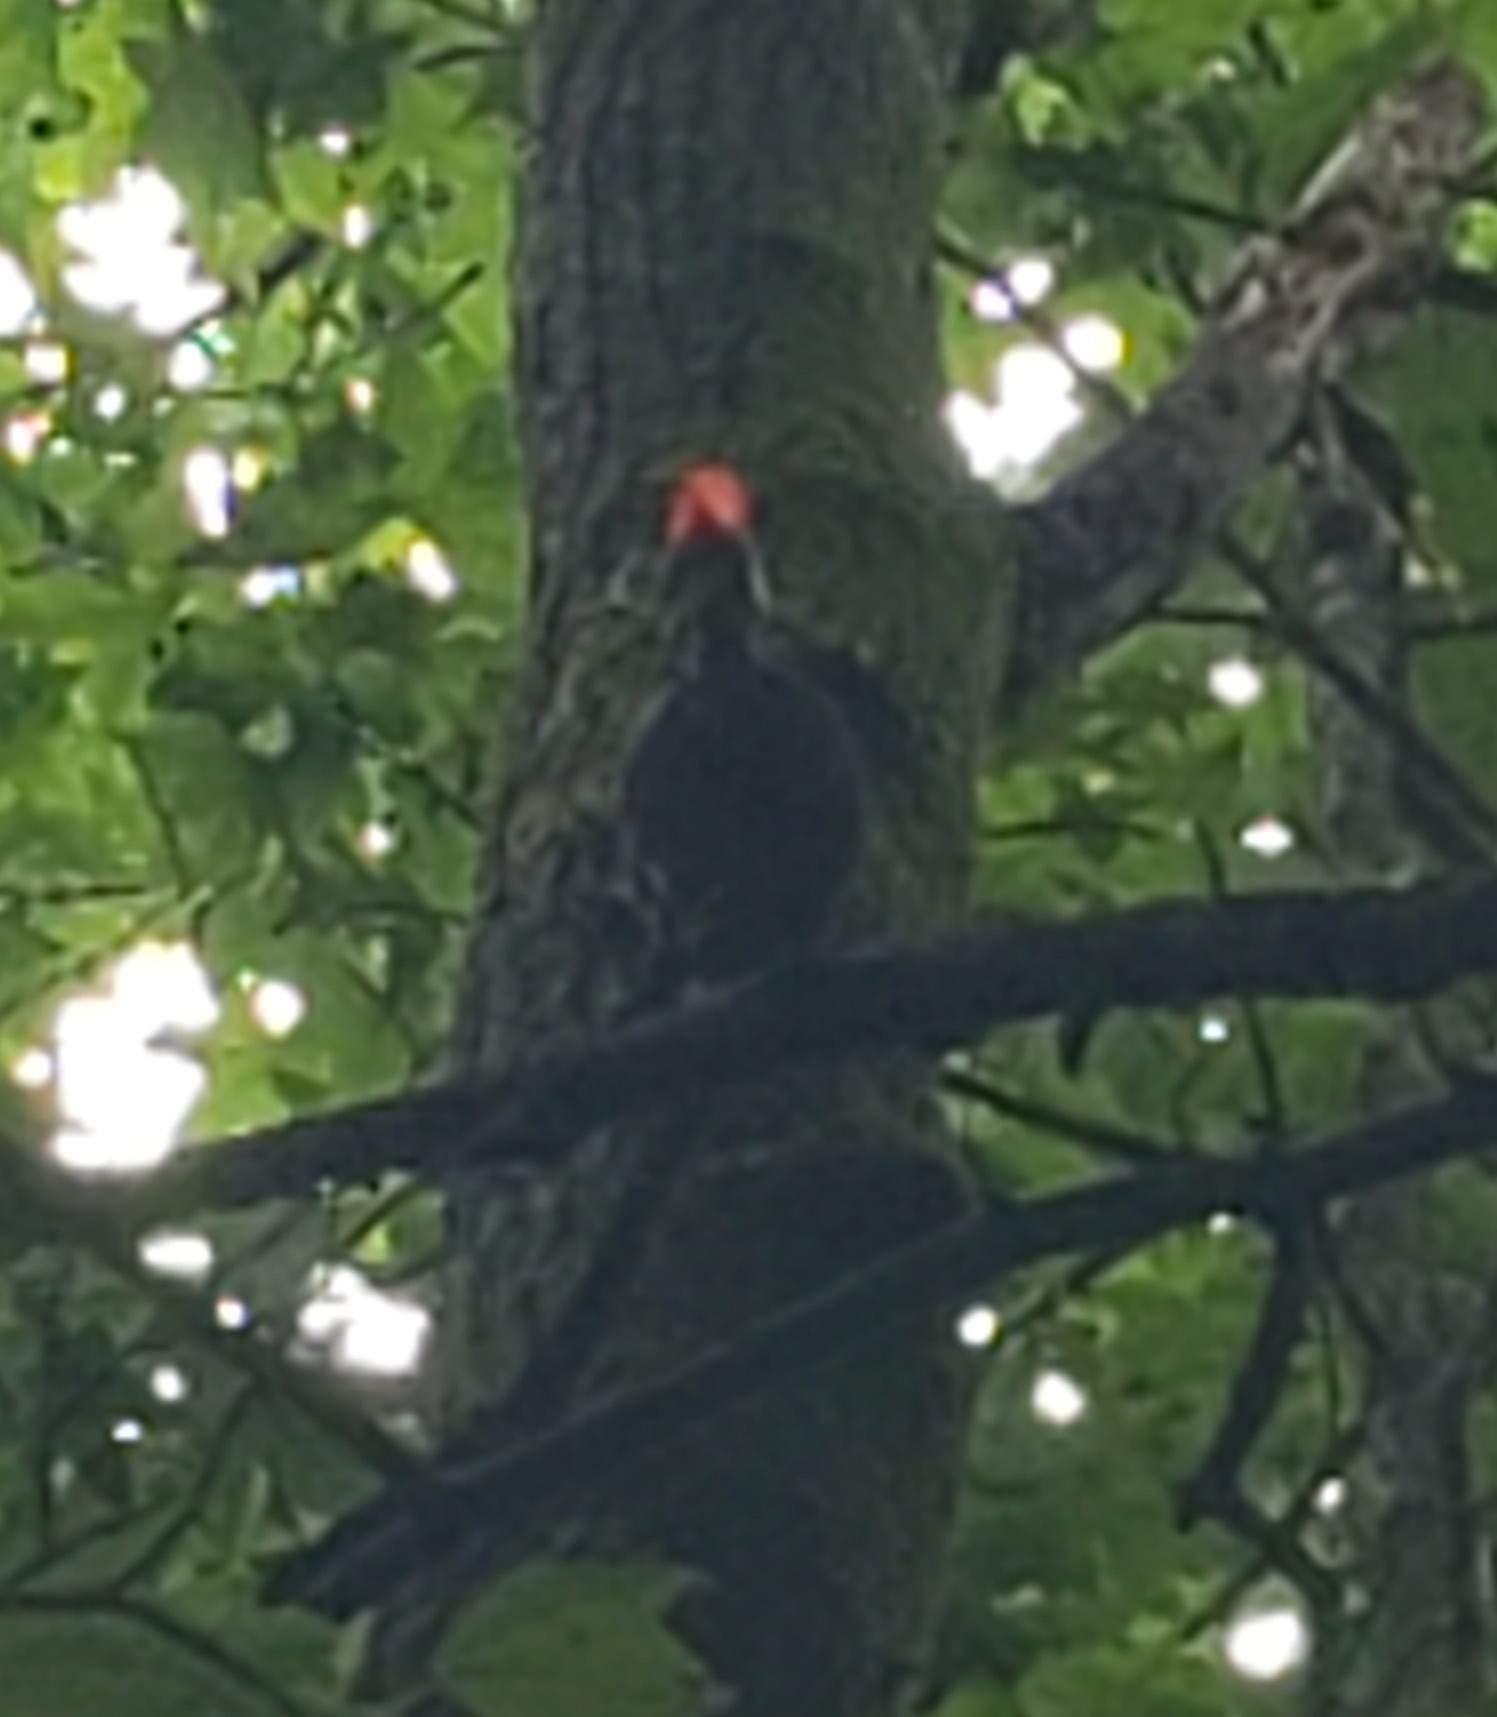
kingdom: Animalia
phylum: Chordata
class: Aves
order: Piciformes
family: Picidae
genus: Dryocopus
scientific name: Dryocopus pileatus
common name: Pileated woodpecker
